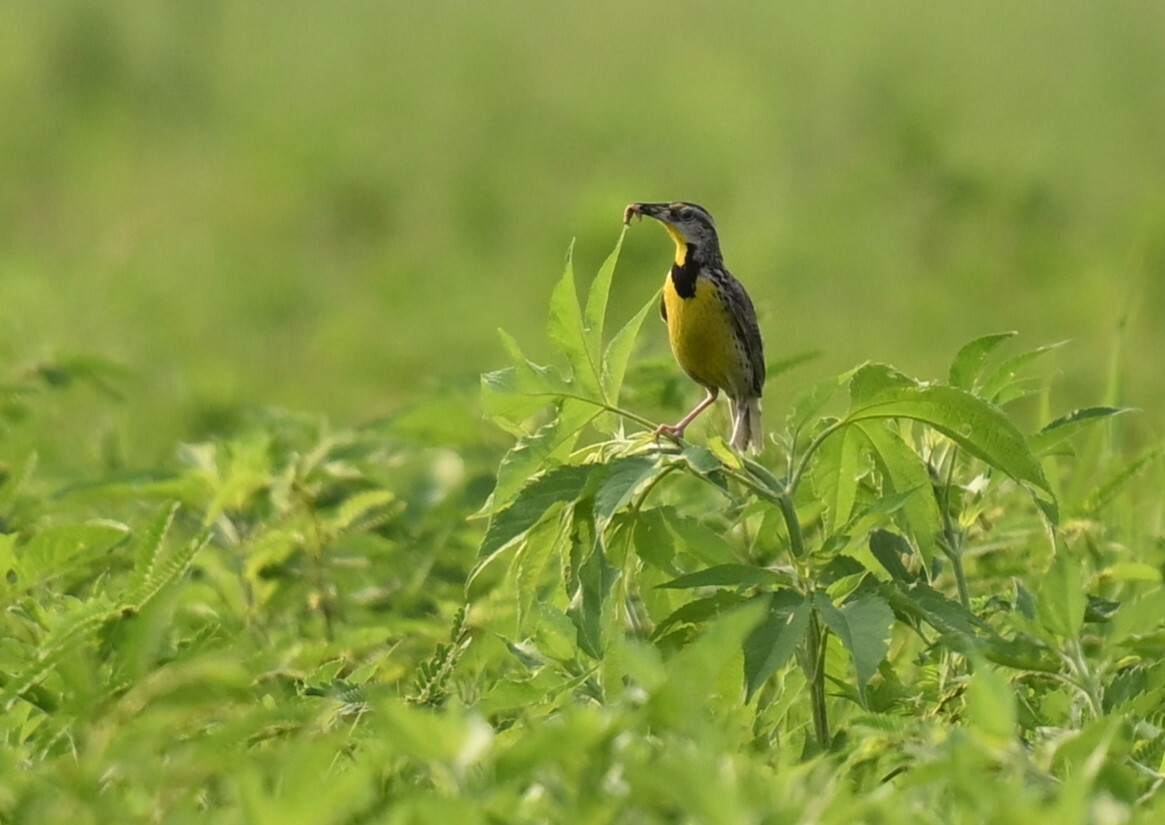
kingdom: Animalia
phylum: Chordata
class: Aves
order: Passeriformes
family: Icteridae
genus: Sturnella
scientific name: Sturnella magna
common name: Eastern meadowlark
